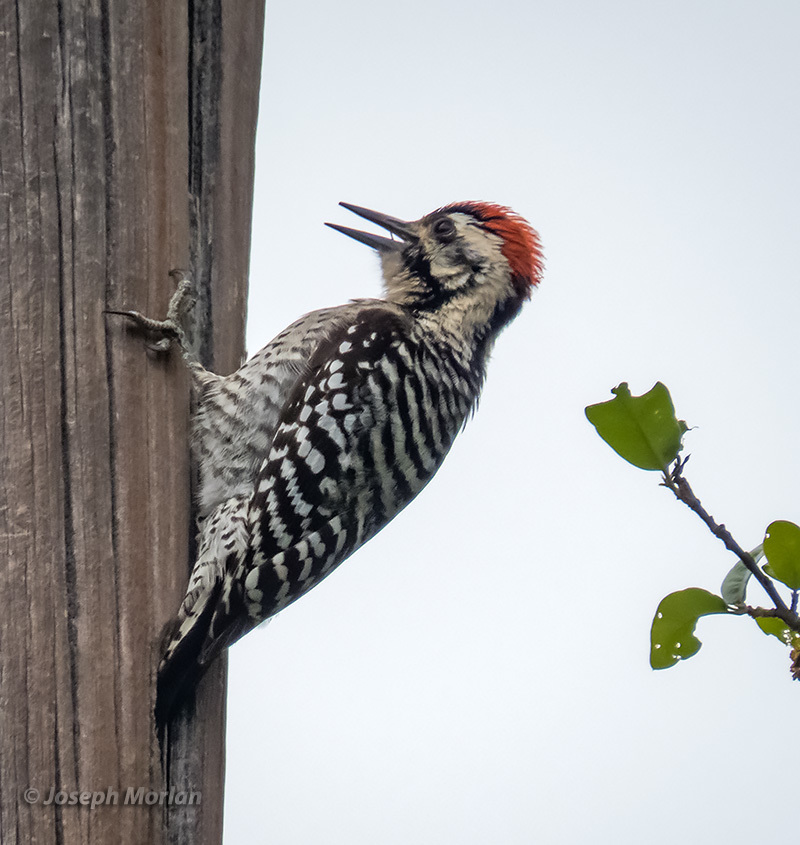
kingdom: Animalia
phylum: Chordata
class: Aves
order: Piciformes
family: Picidae
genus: Dryobates
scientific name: Dryobates scalaris
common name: Ladder-backed woodpecker
